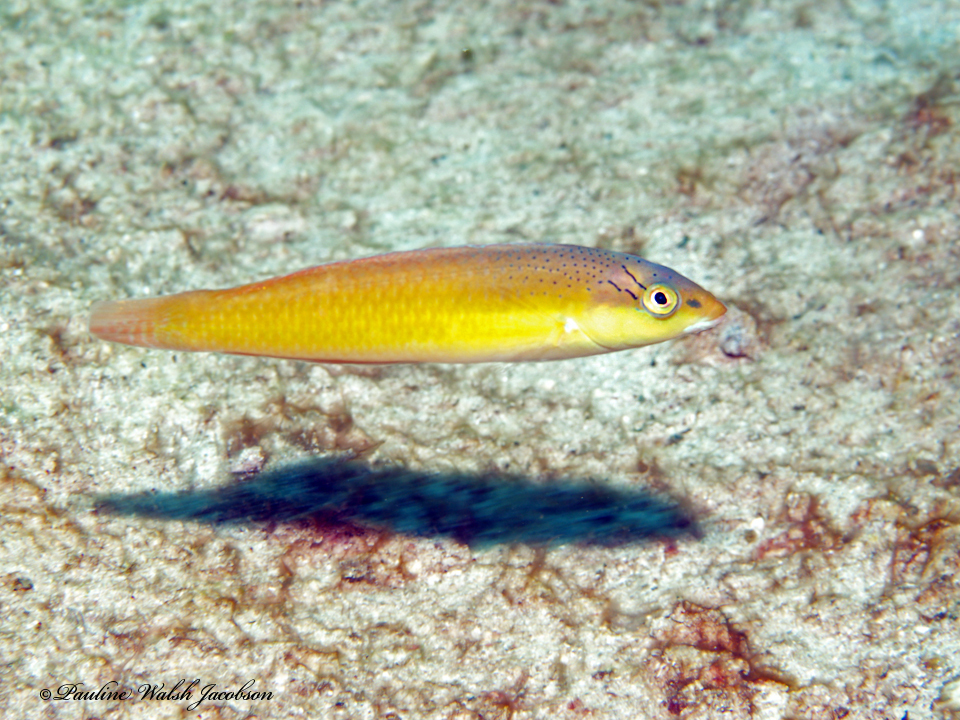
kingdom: Animalia
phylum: Chordata
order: Perciformes
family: Labridae
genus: Halichoeres
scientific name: Halichoeres garnoti
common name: Yellowhead wrasse
